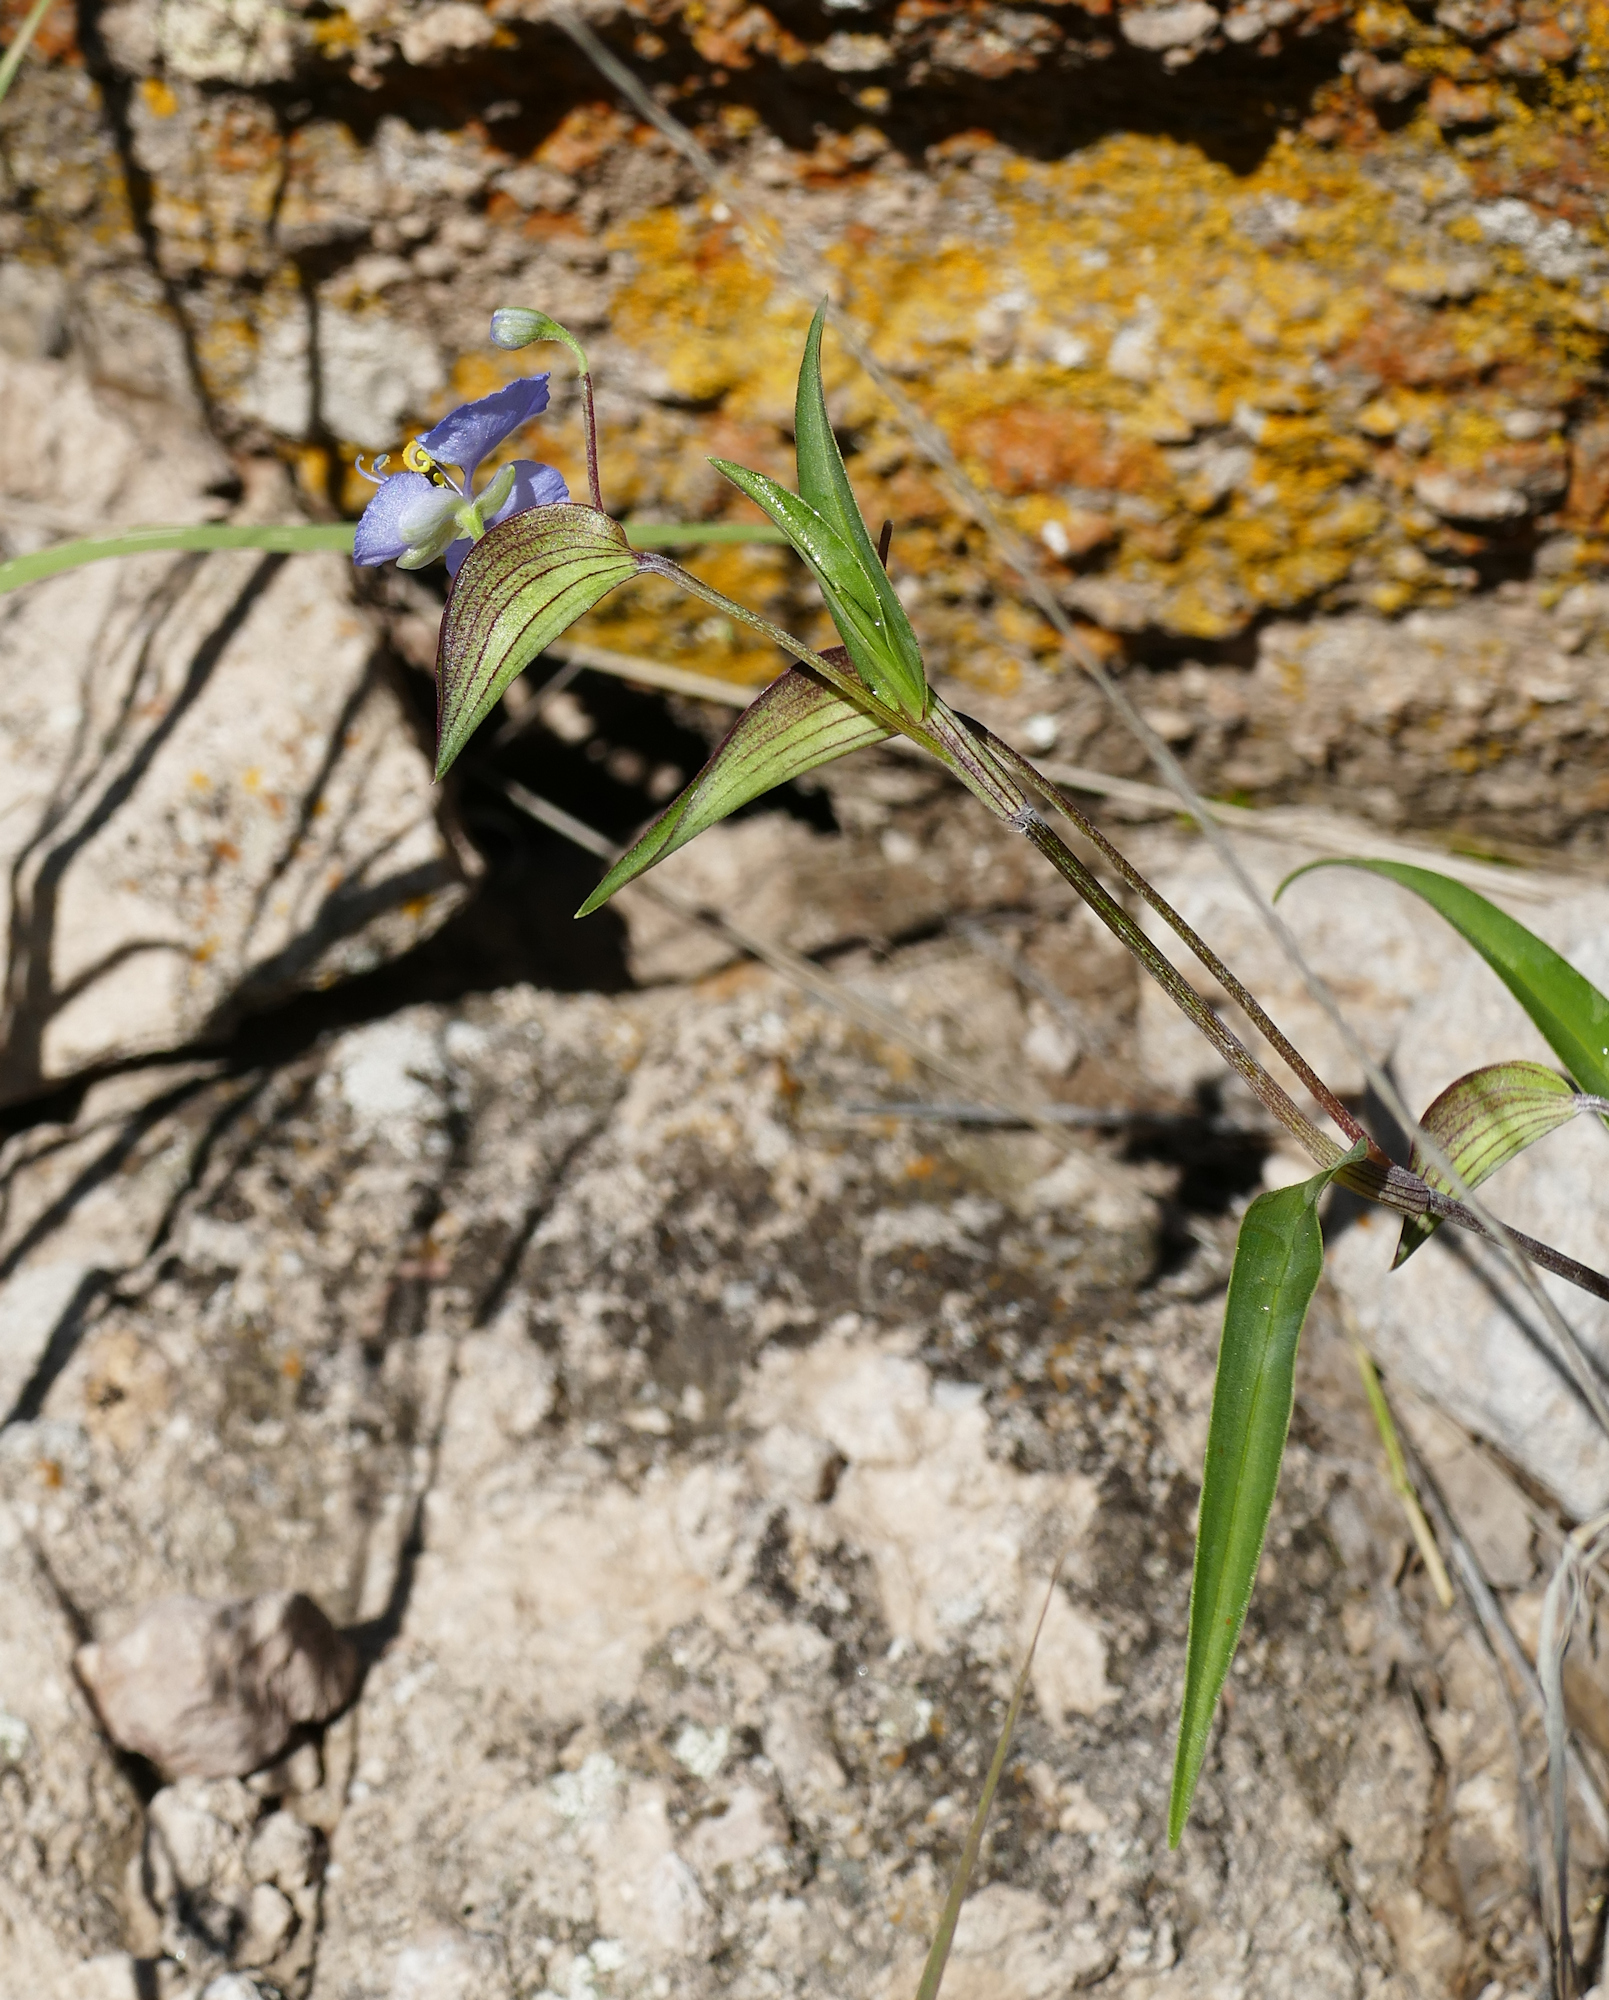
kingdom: Plantae
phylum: Tracheophyta
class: Liliopsida
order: Commelinales
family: Commelinaceae
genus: Commelina
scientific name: Commelina dianthifolia
